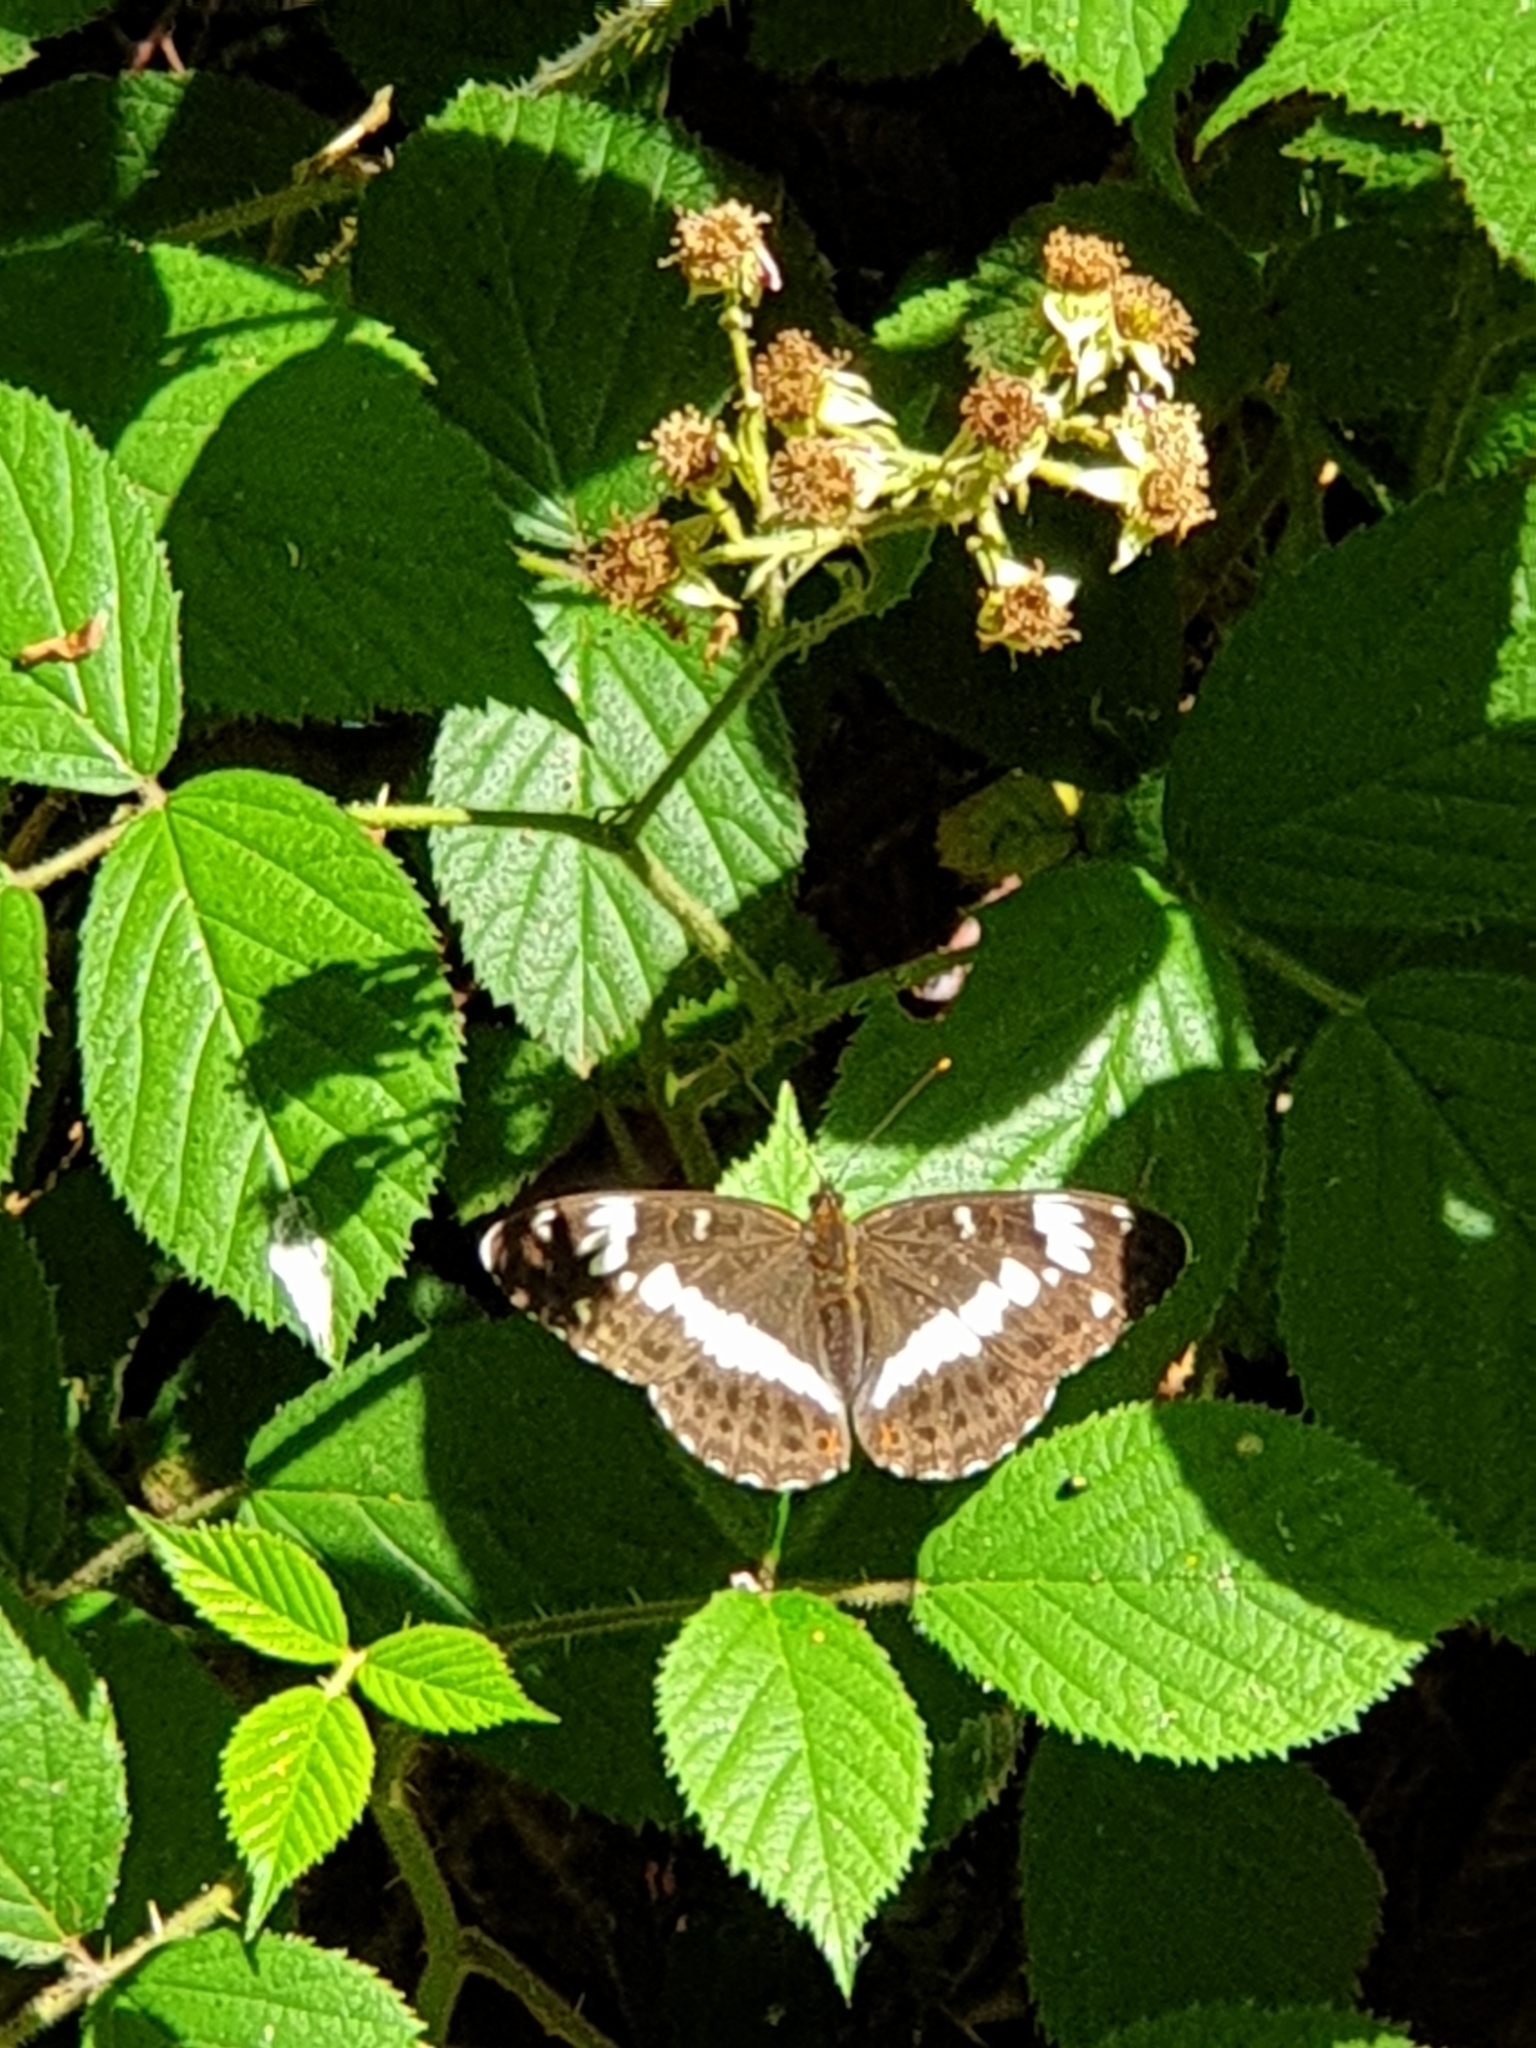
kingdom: Animalia
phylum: Arthropoda
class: Insecta
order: Lepidoptera
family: Nymphalidae
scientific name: Nymphalidae
